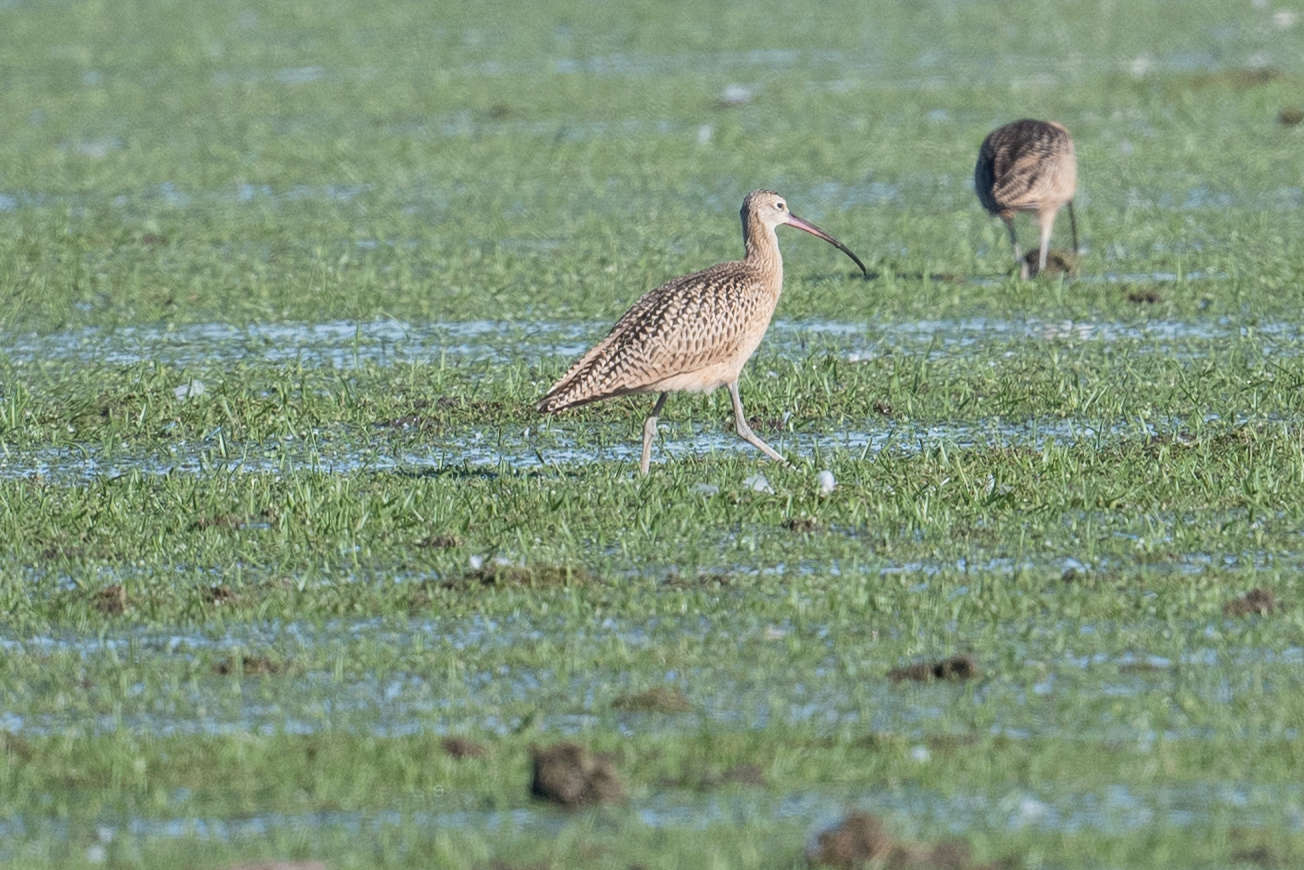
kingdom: Animalia
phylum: Chordata
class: Aves
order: Charadriiformes
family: Scolopacidae
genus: Numenius
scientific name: Numenius americanus
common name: Long-billed curlew
